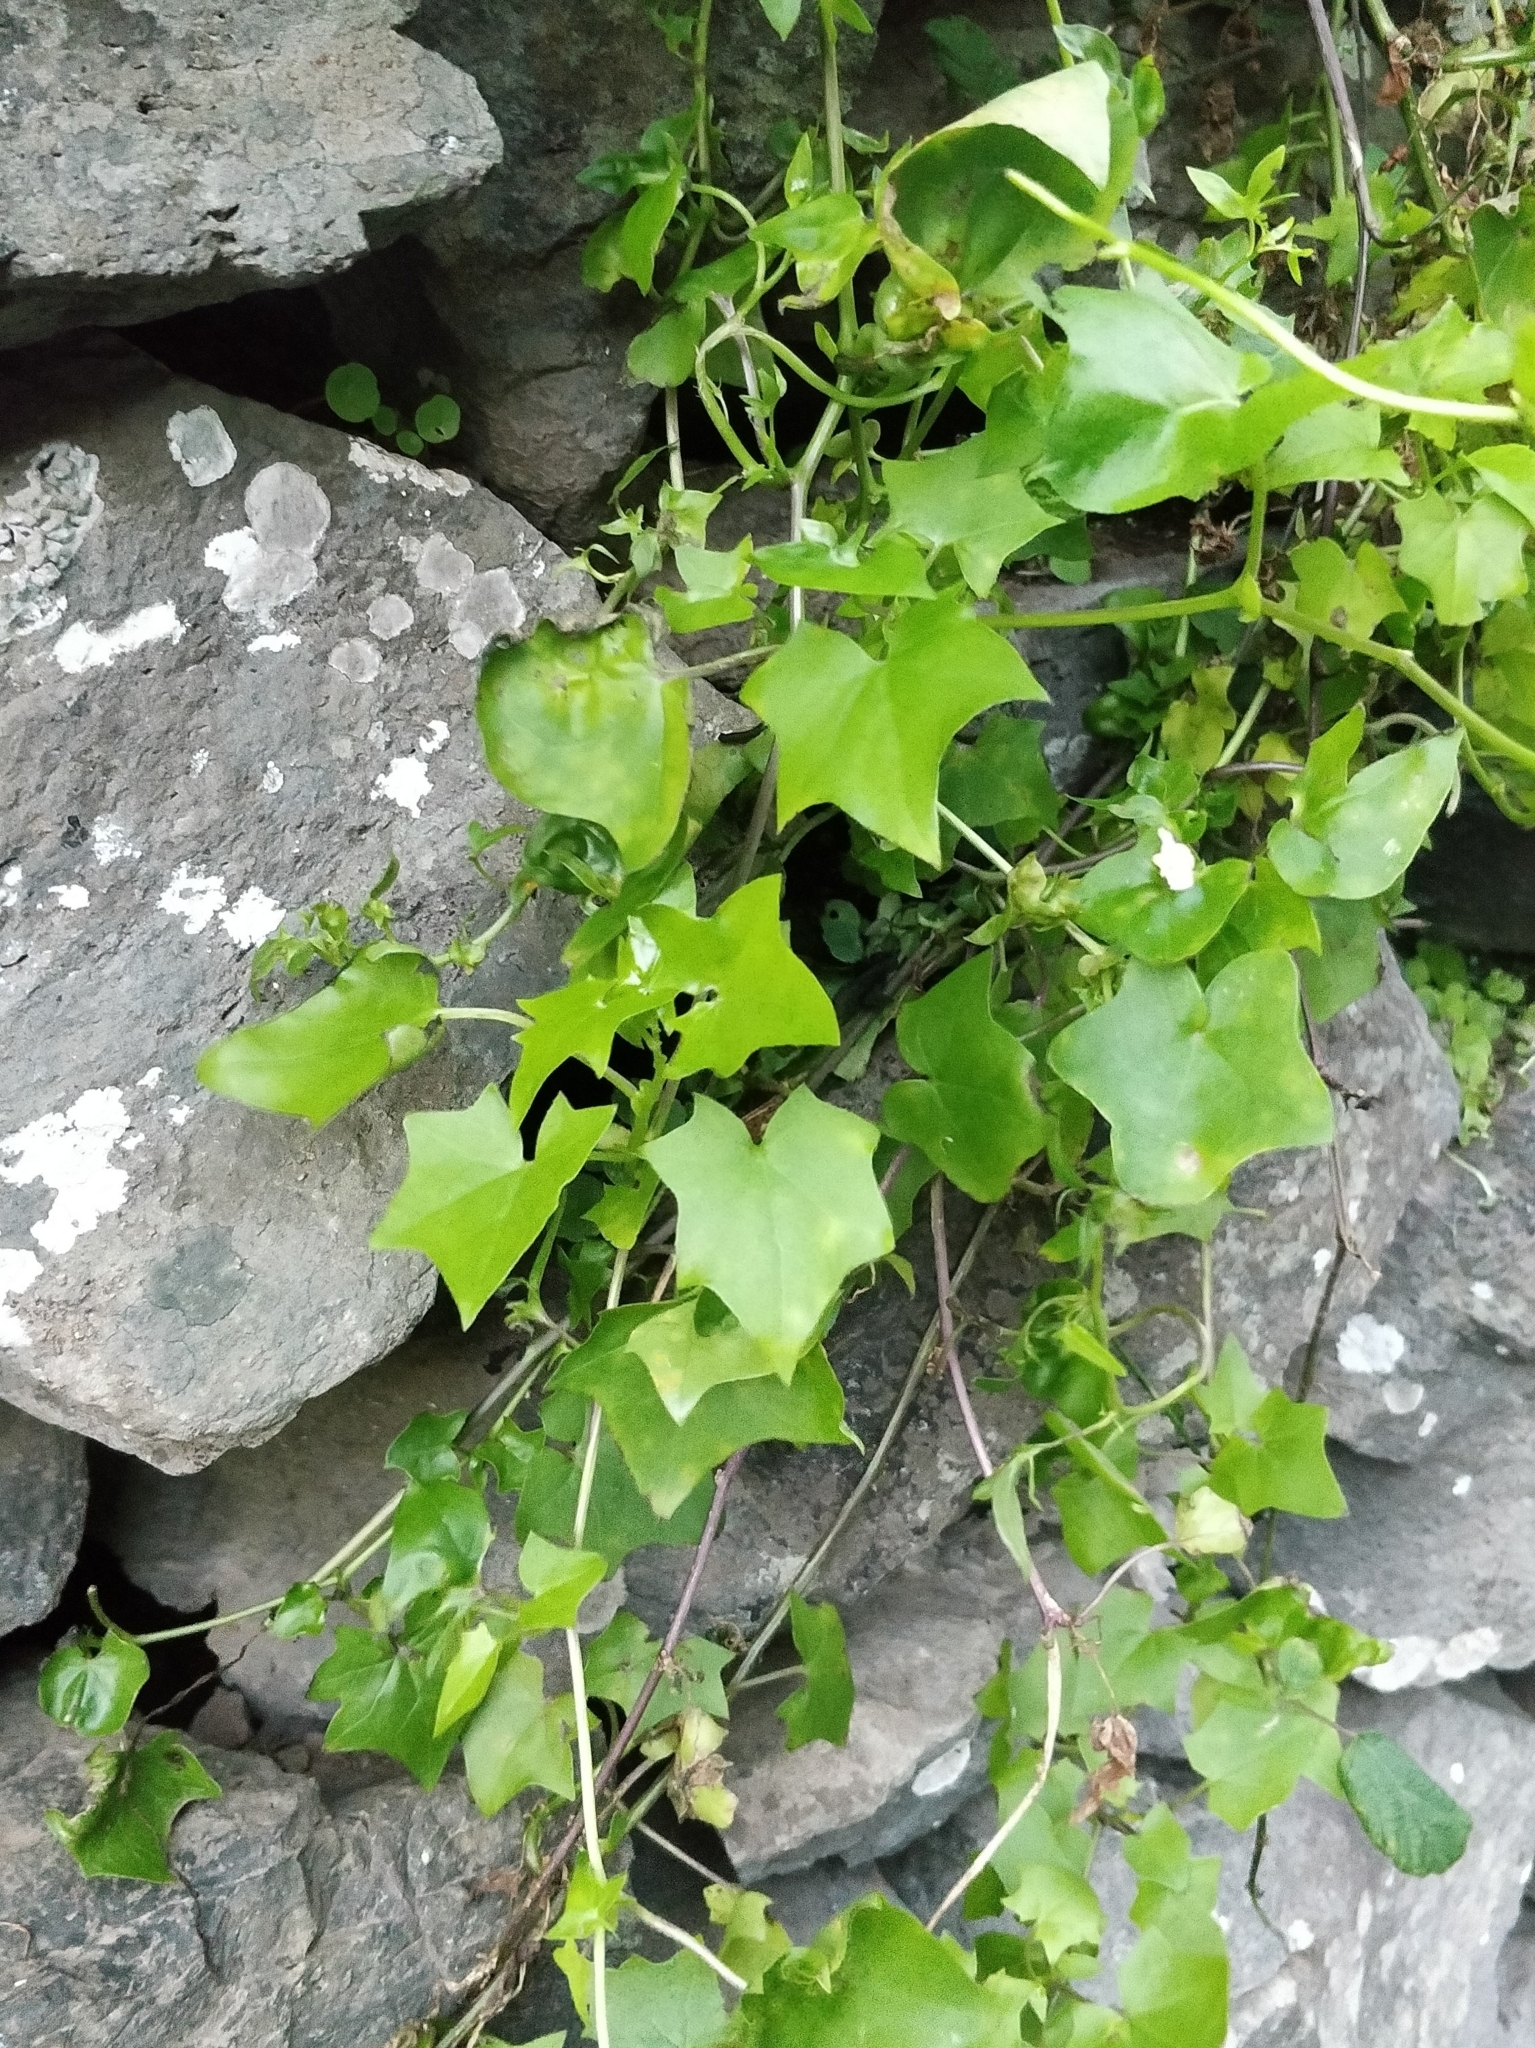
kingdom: Plantae
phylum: Tracheophyta
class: Magnoliopsida
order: Asterales
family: Asteraceae
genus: Delairea
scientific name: Delairea odorata
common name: Cape-ivy
